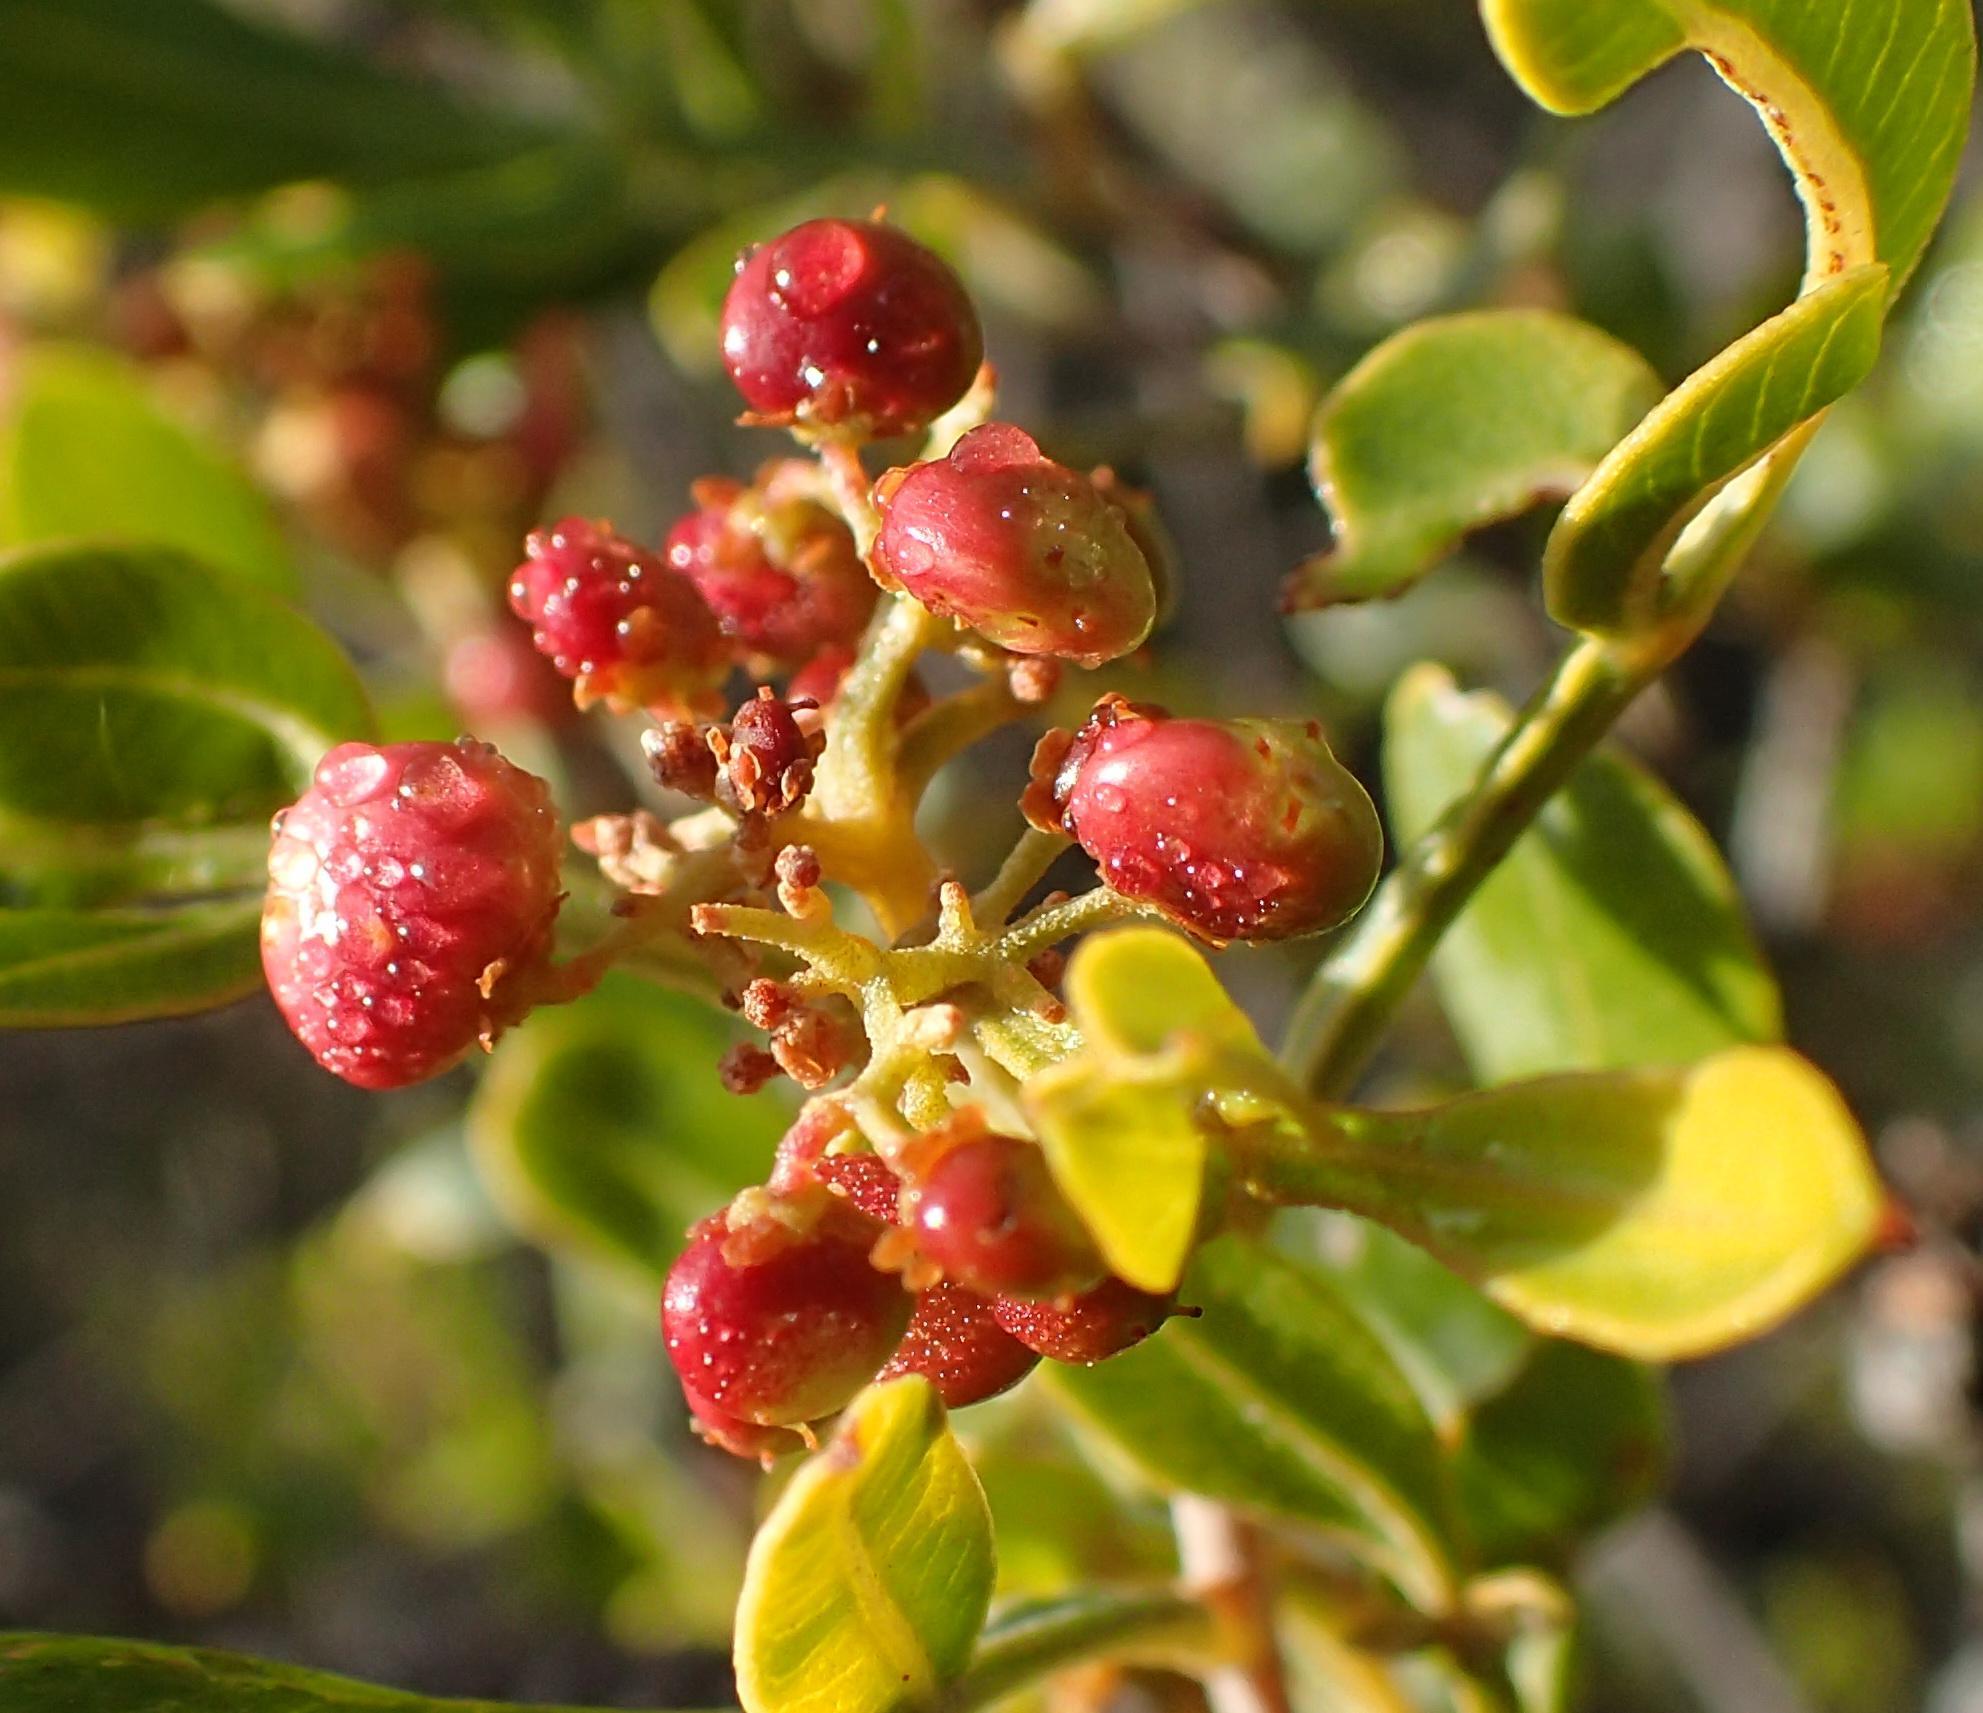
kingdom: Plantae
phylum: Tracheophyta
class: Magnoliopsida
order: Sapindales
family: Anacardiaceae
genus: Searsia
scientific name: Searsia pallens
